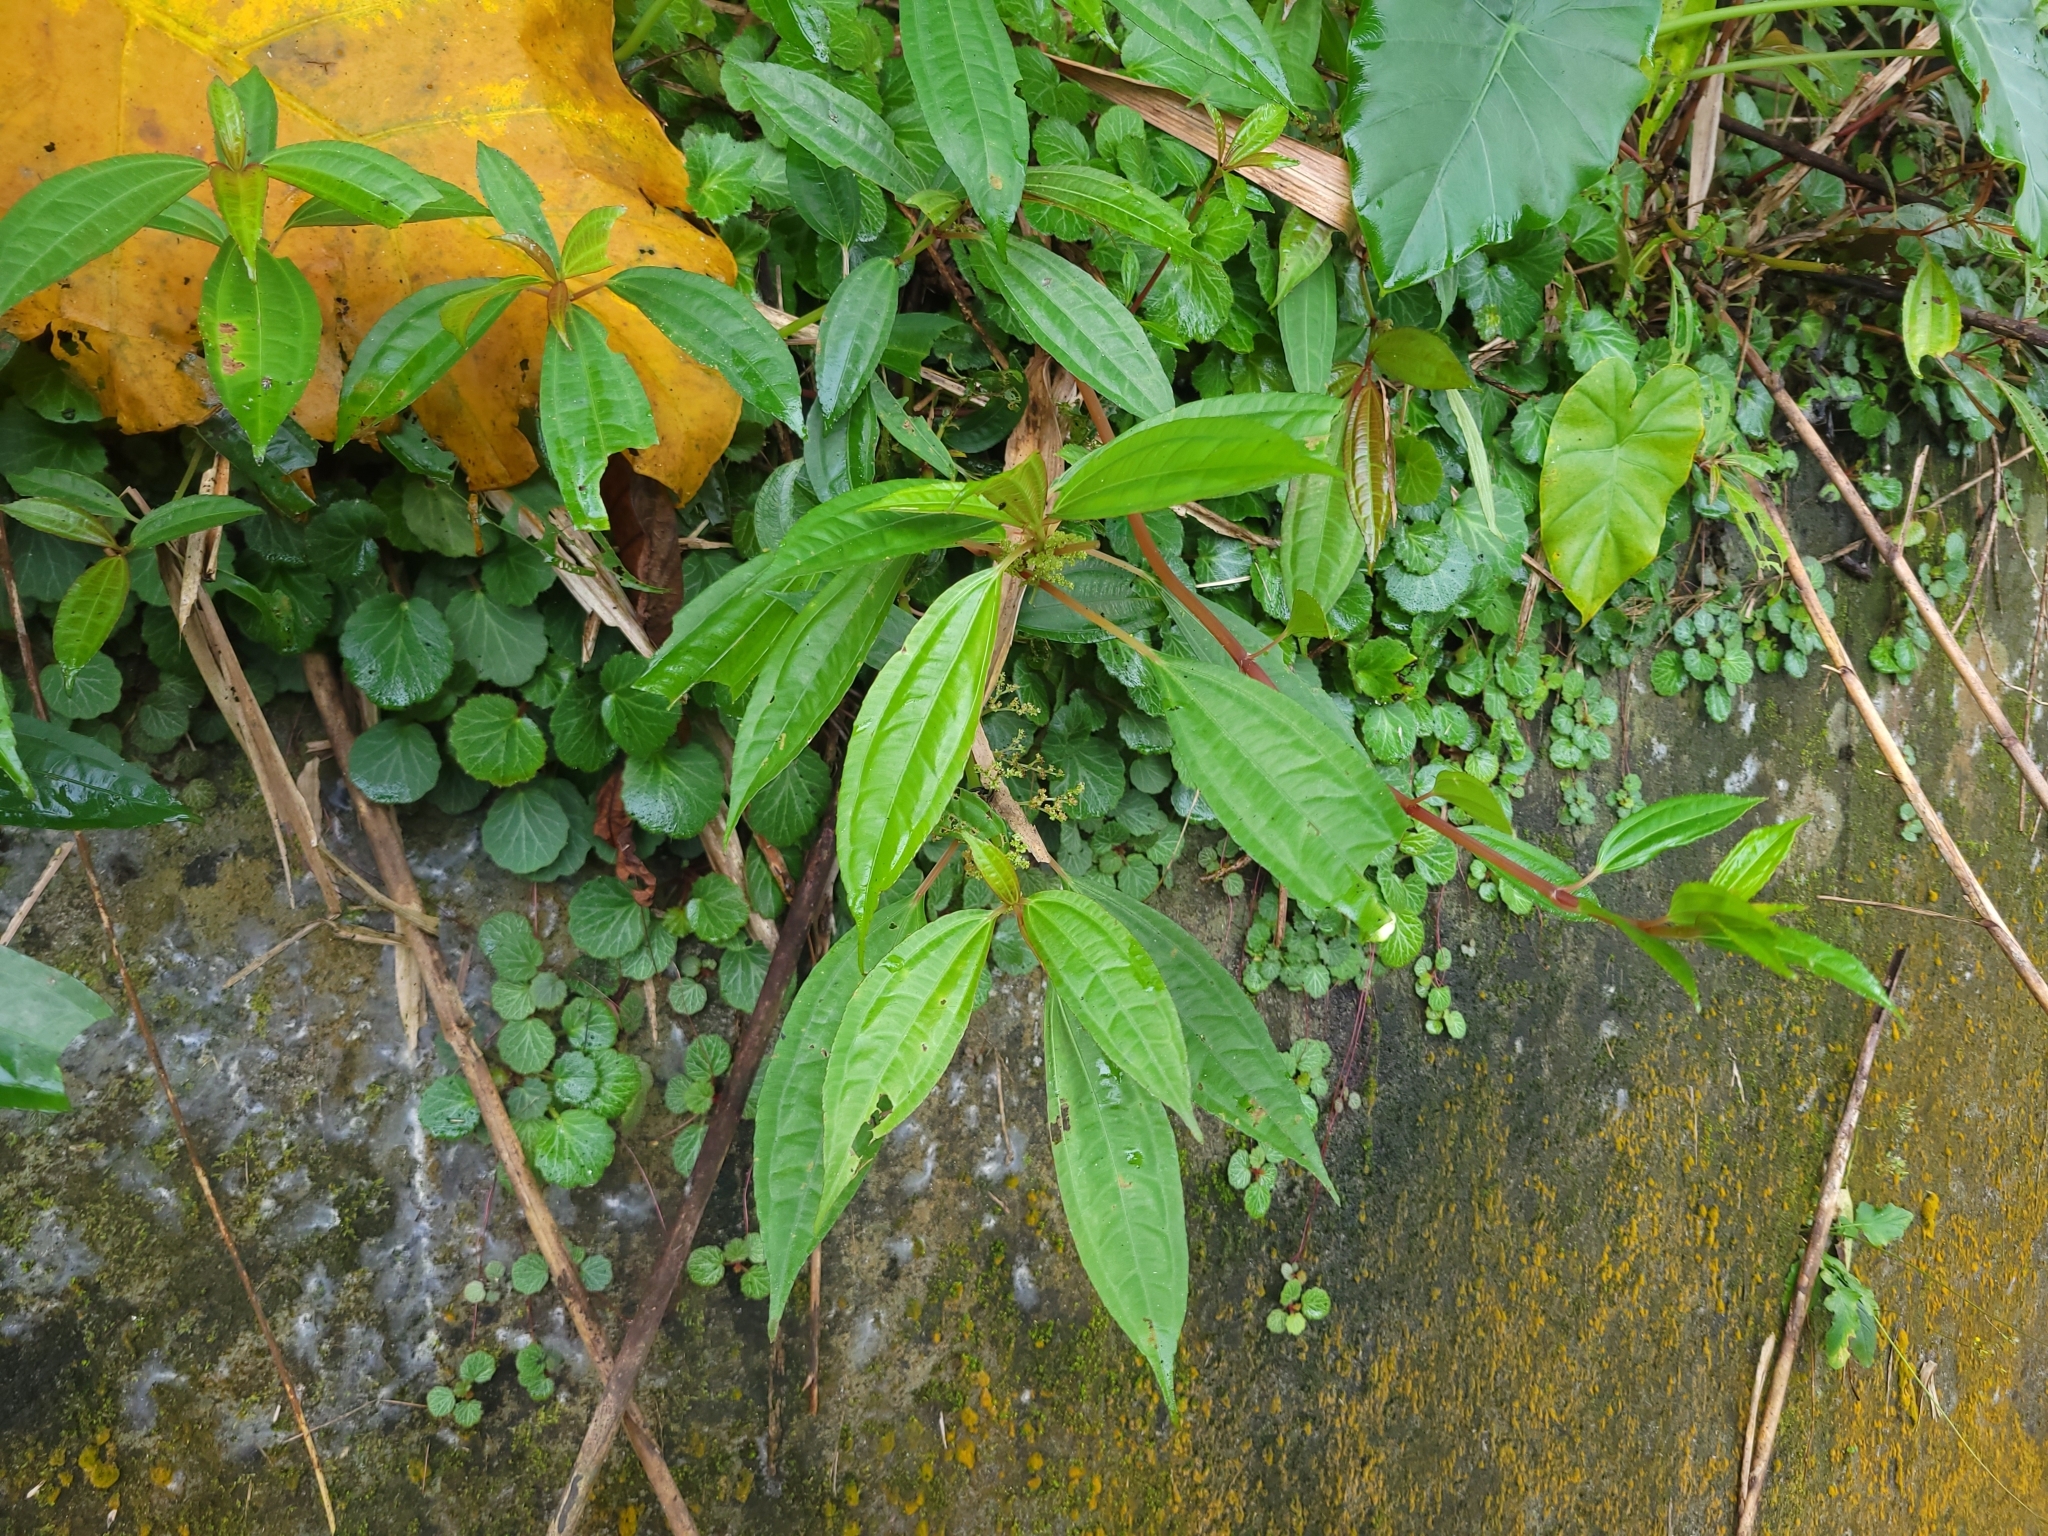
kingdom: Plantae
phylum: Tracheophyta
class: Magnoliopsida
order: Rosales
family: Urticaceae
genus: Pilea
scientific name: Pilea rotundinucula
